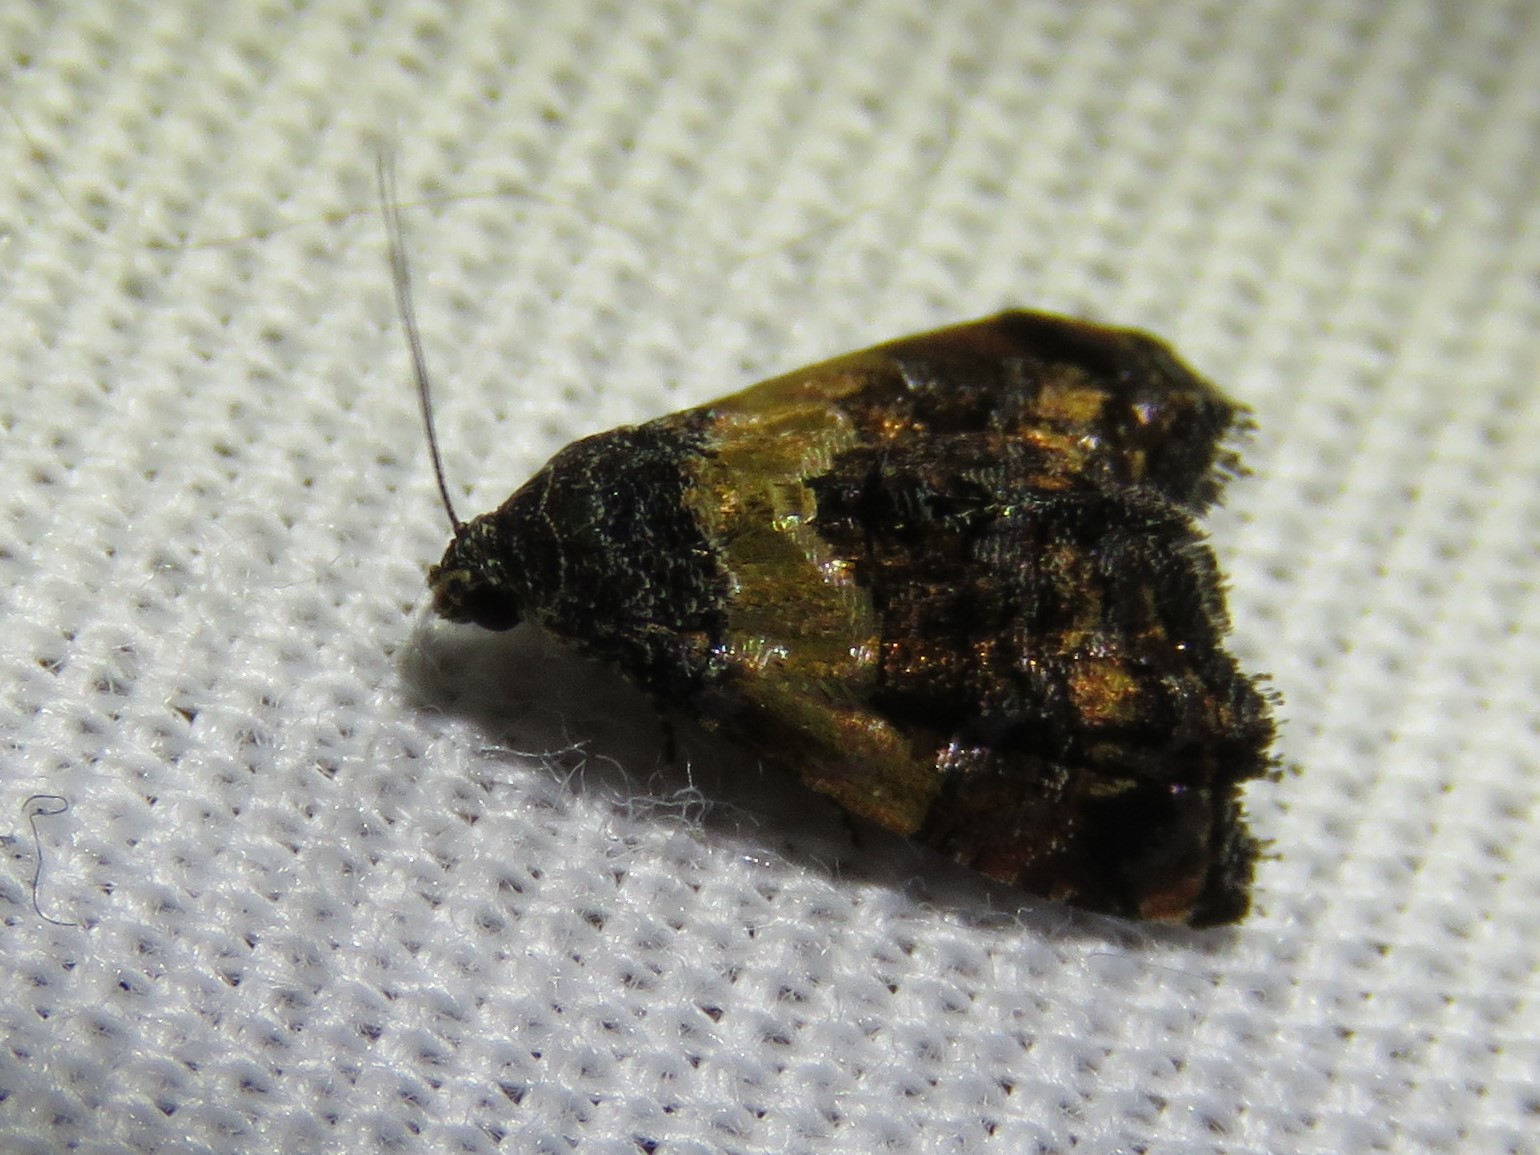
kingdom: Animalia
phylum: Arthropoda
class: Insecta
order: Lepidoptera
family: Noctuidae
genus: Tripudia
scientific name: Tripudia flavofasciata
